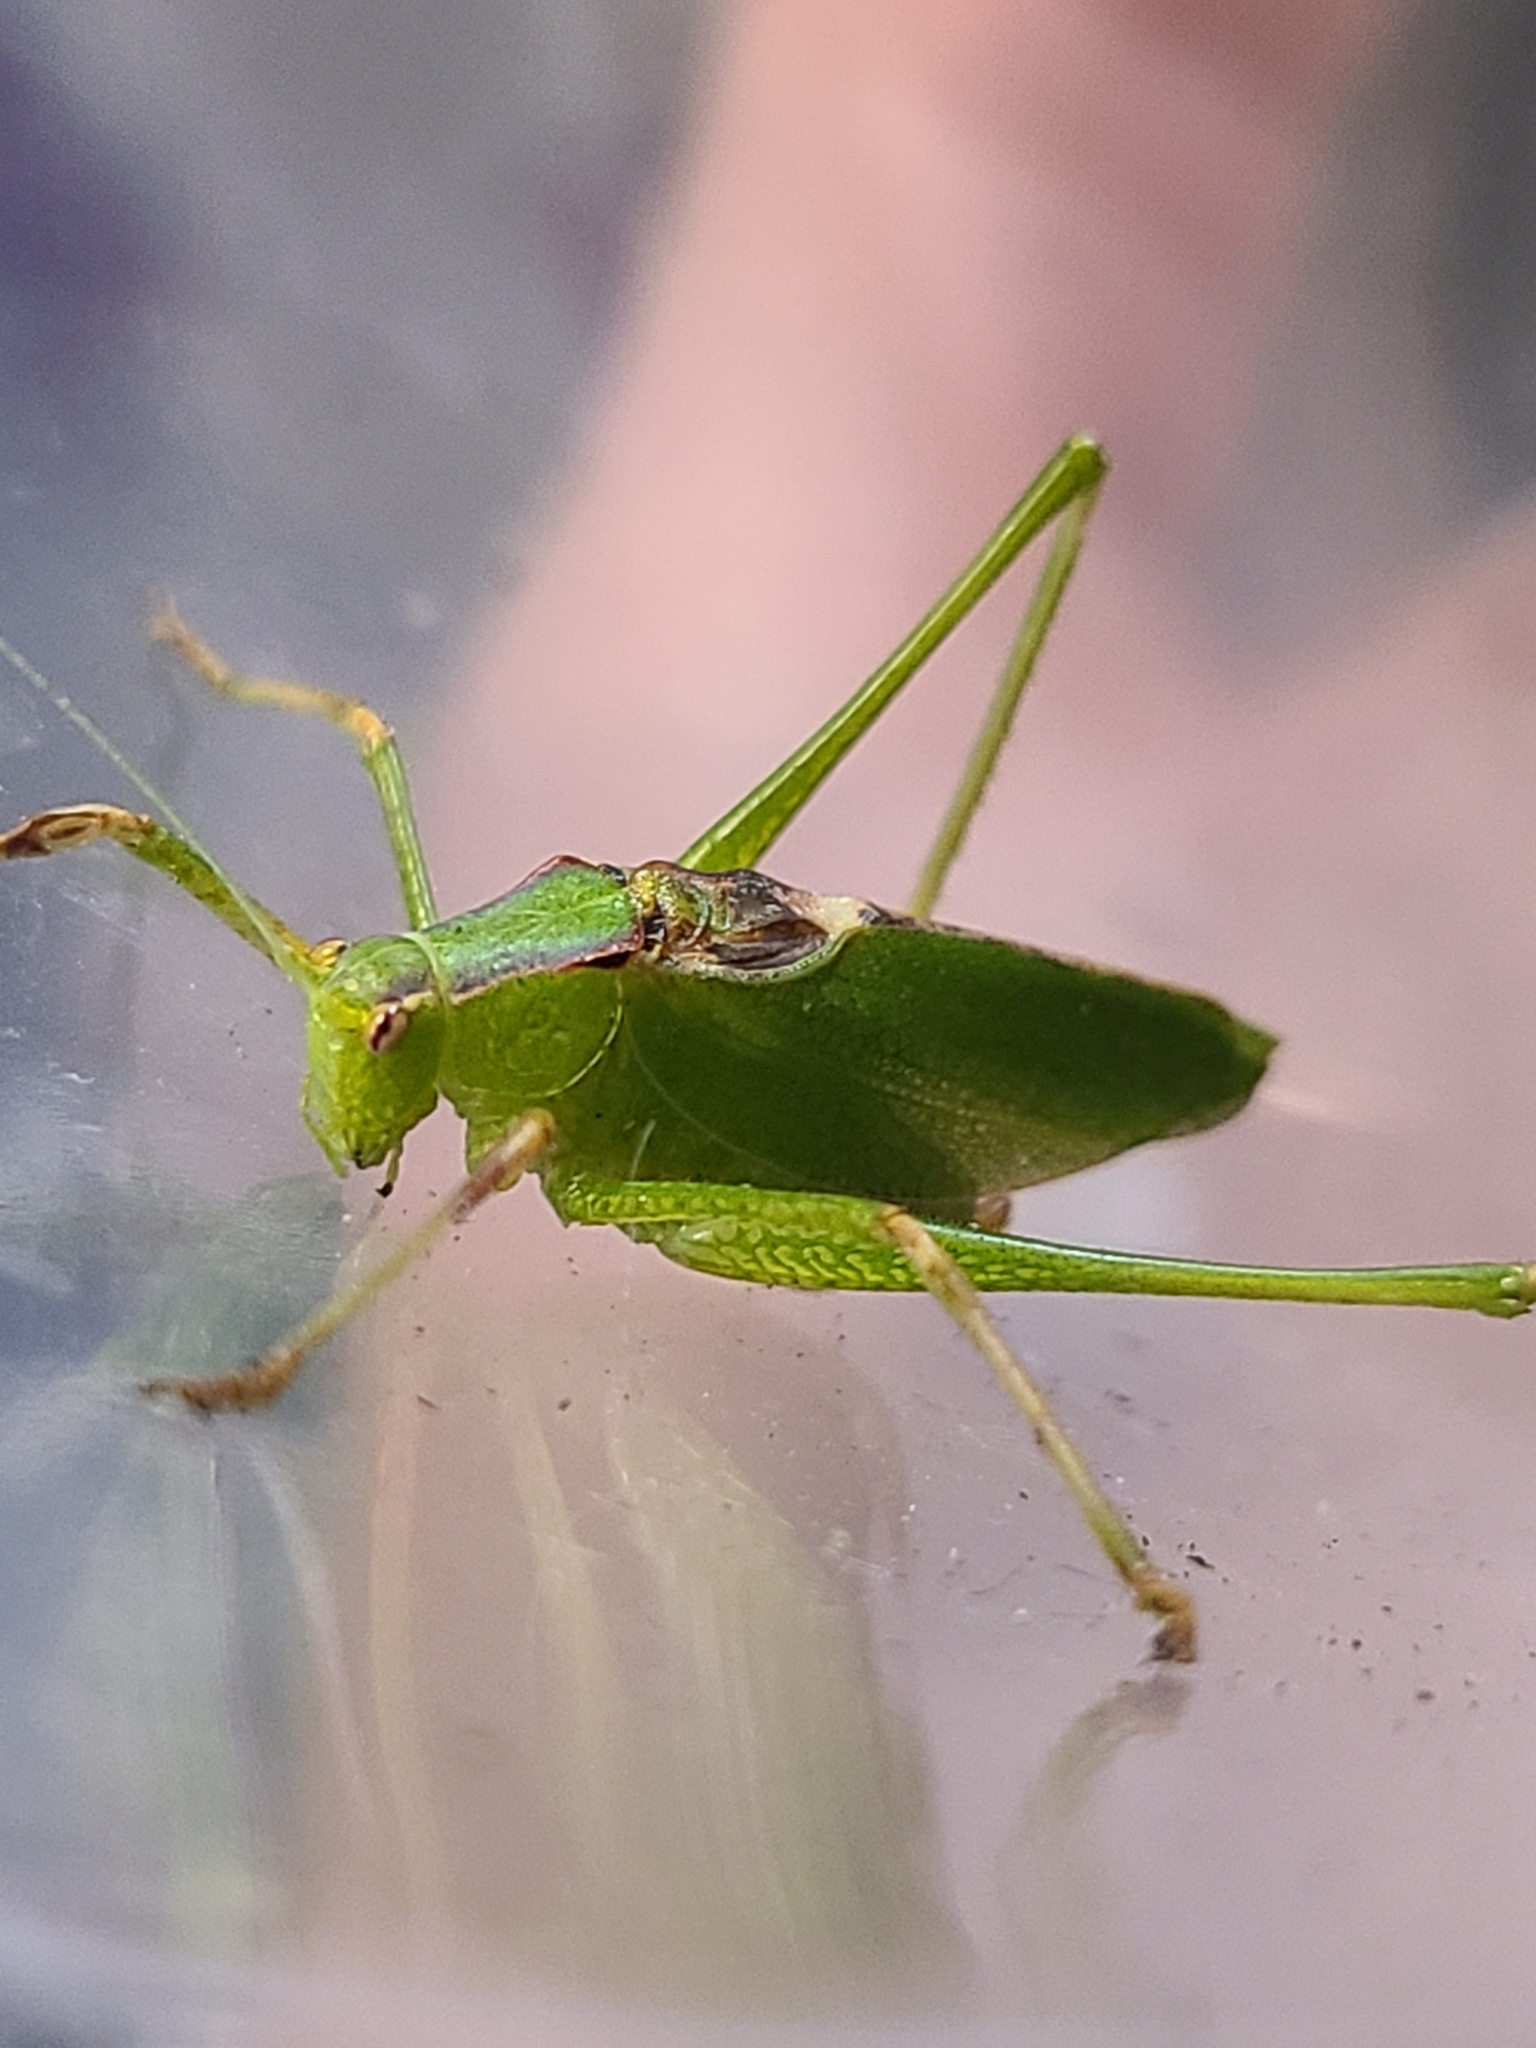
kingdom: Animalia
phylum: Arthropoda
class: Insecta
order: Orthoptera
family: Tettigoniidae
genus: Platylyra
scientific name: Platylyra californica
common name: Chaparral false katydid
